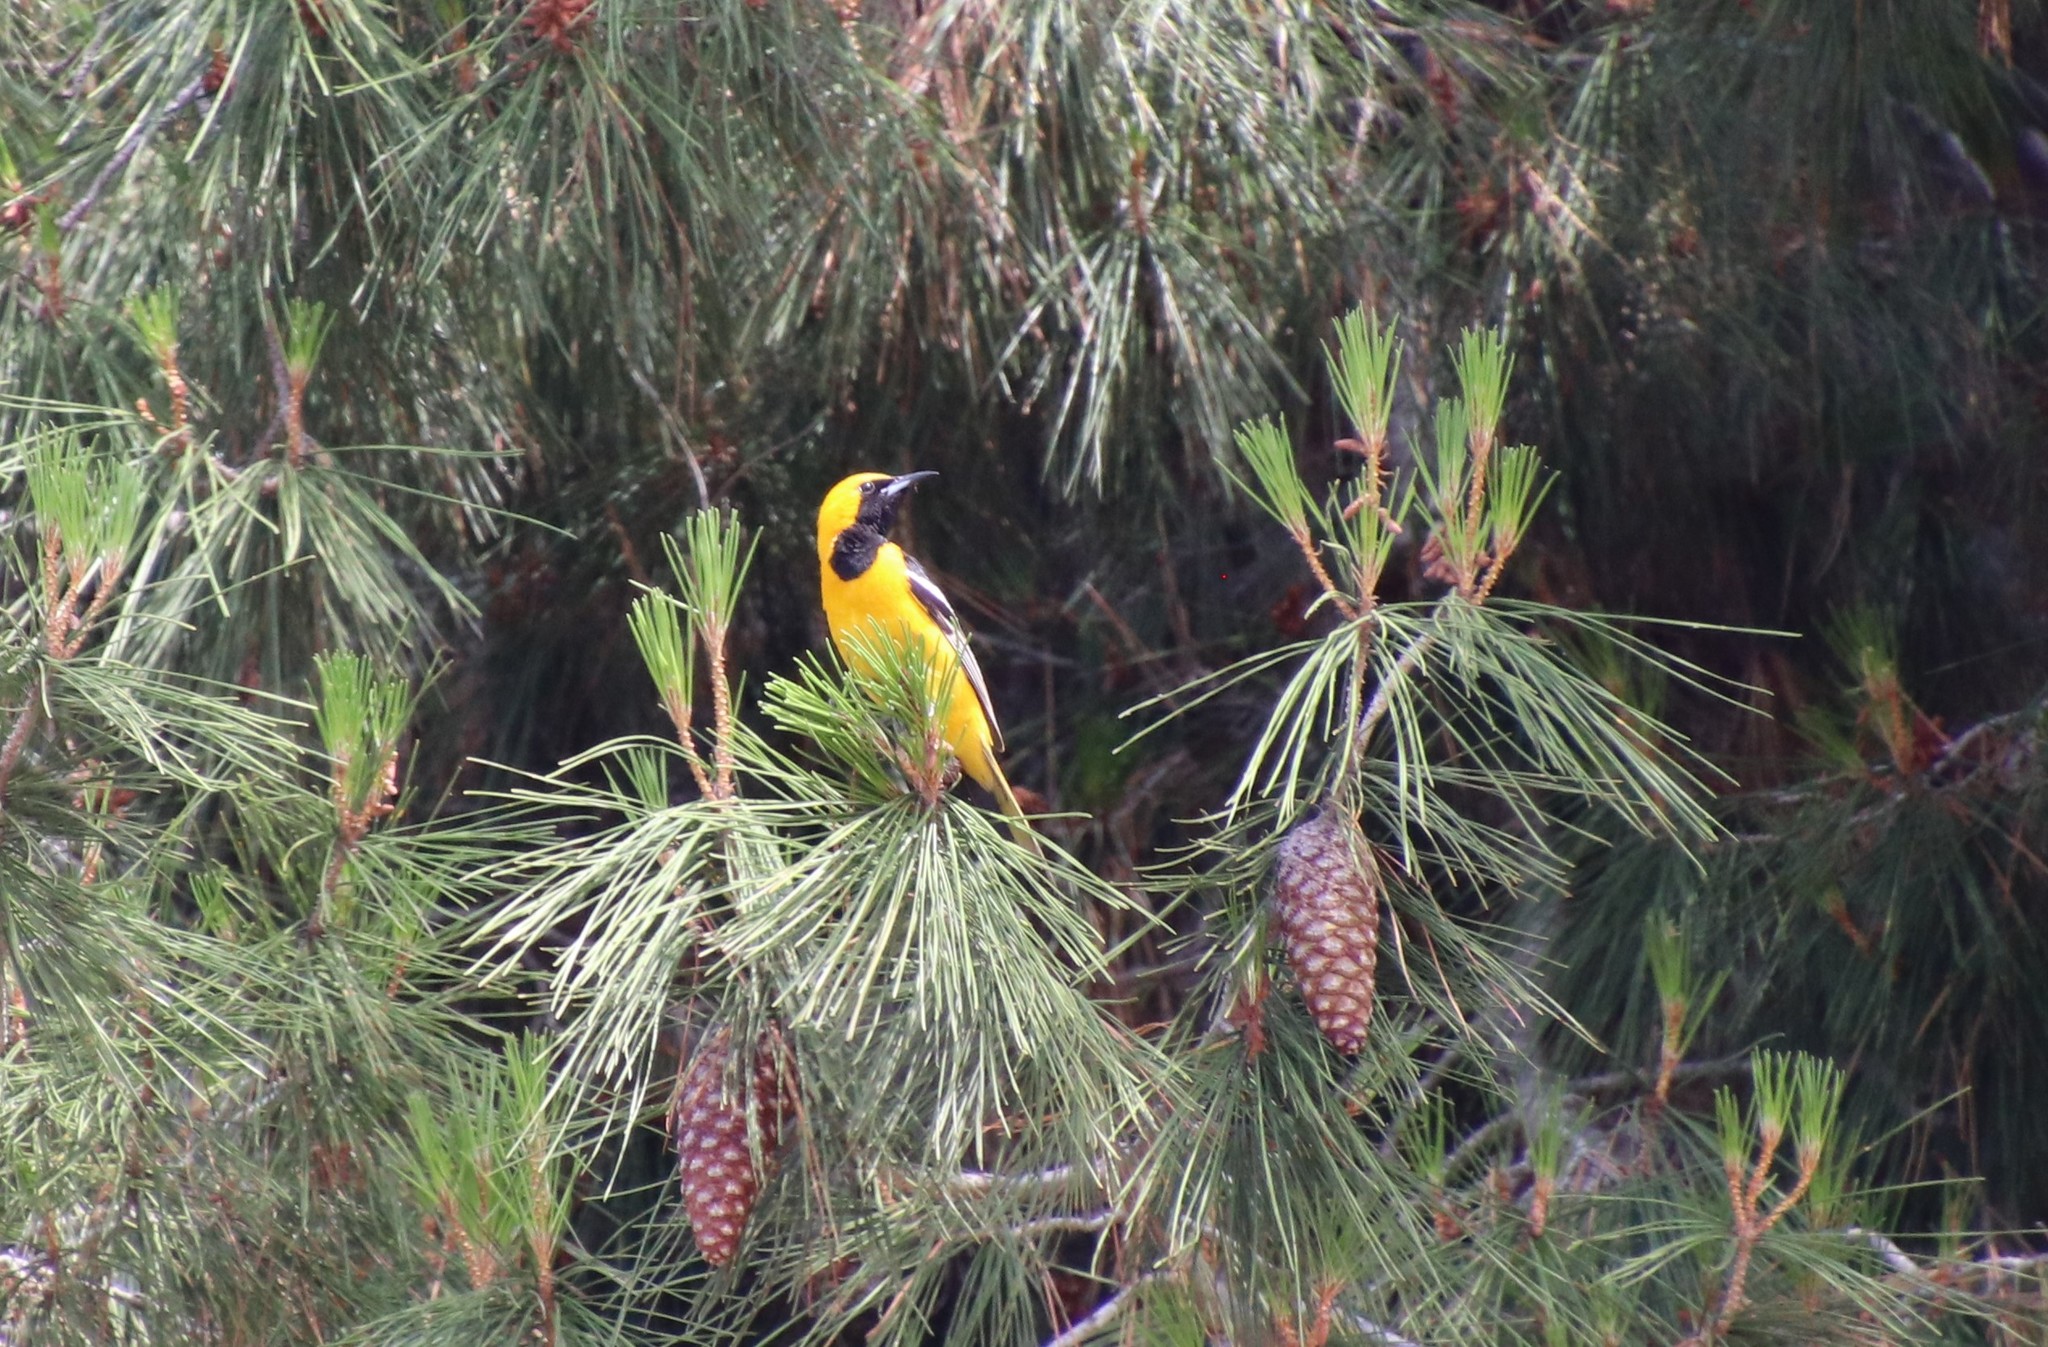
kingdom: Animalia
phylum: Chordata
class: Aves
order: Passeriformes
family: Icteridae
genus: Icterus
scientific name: Icterus cucullatus
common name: Hooded oriole
